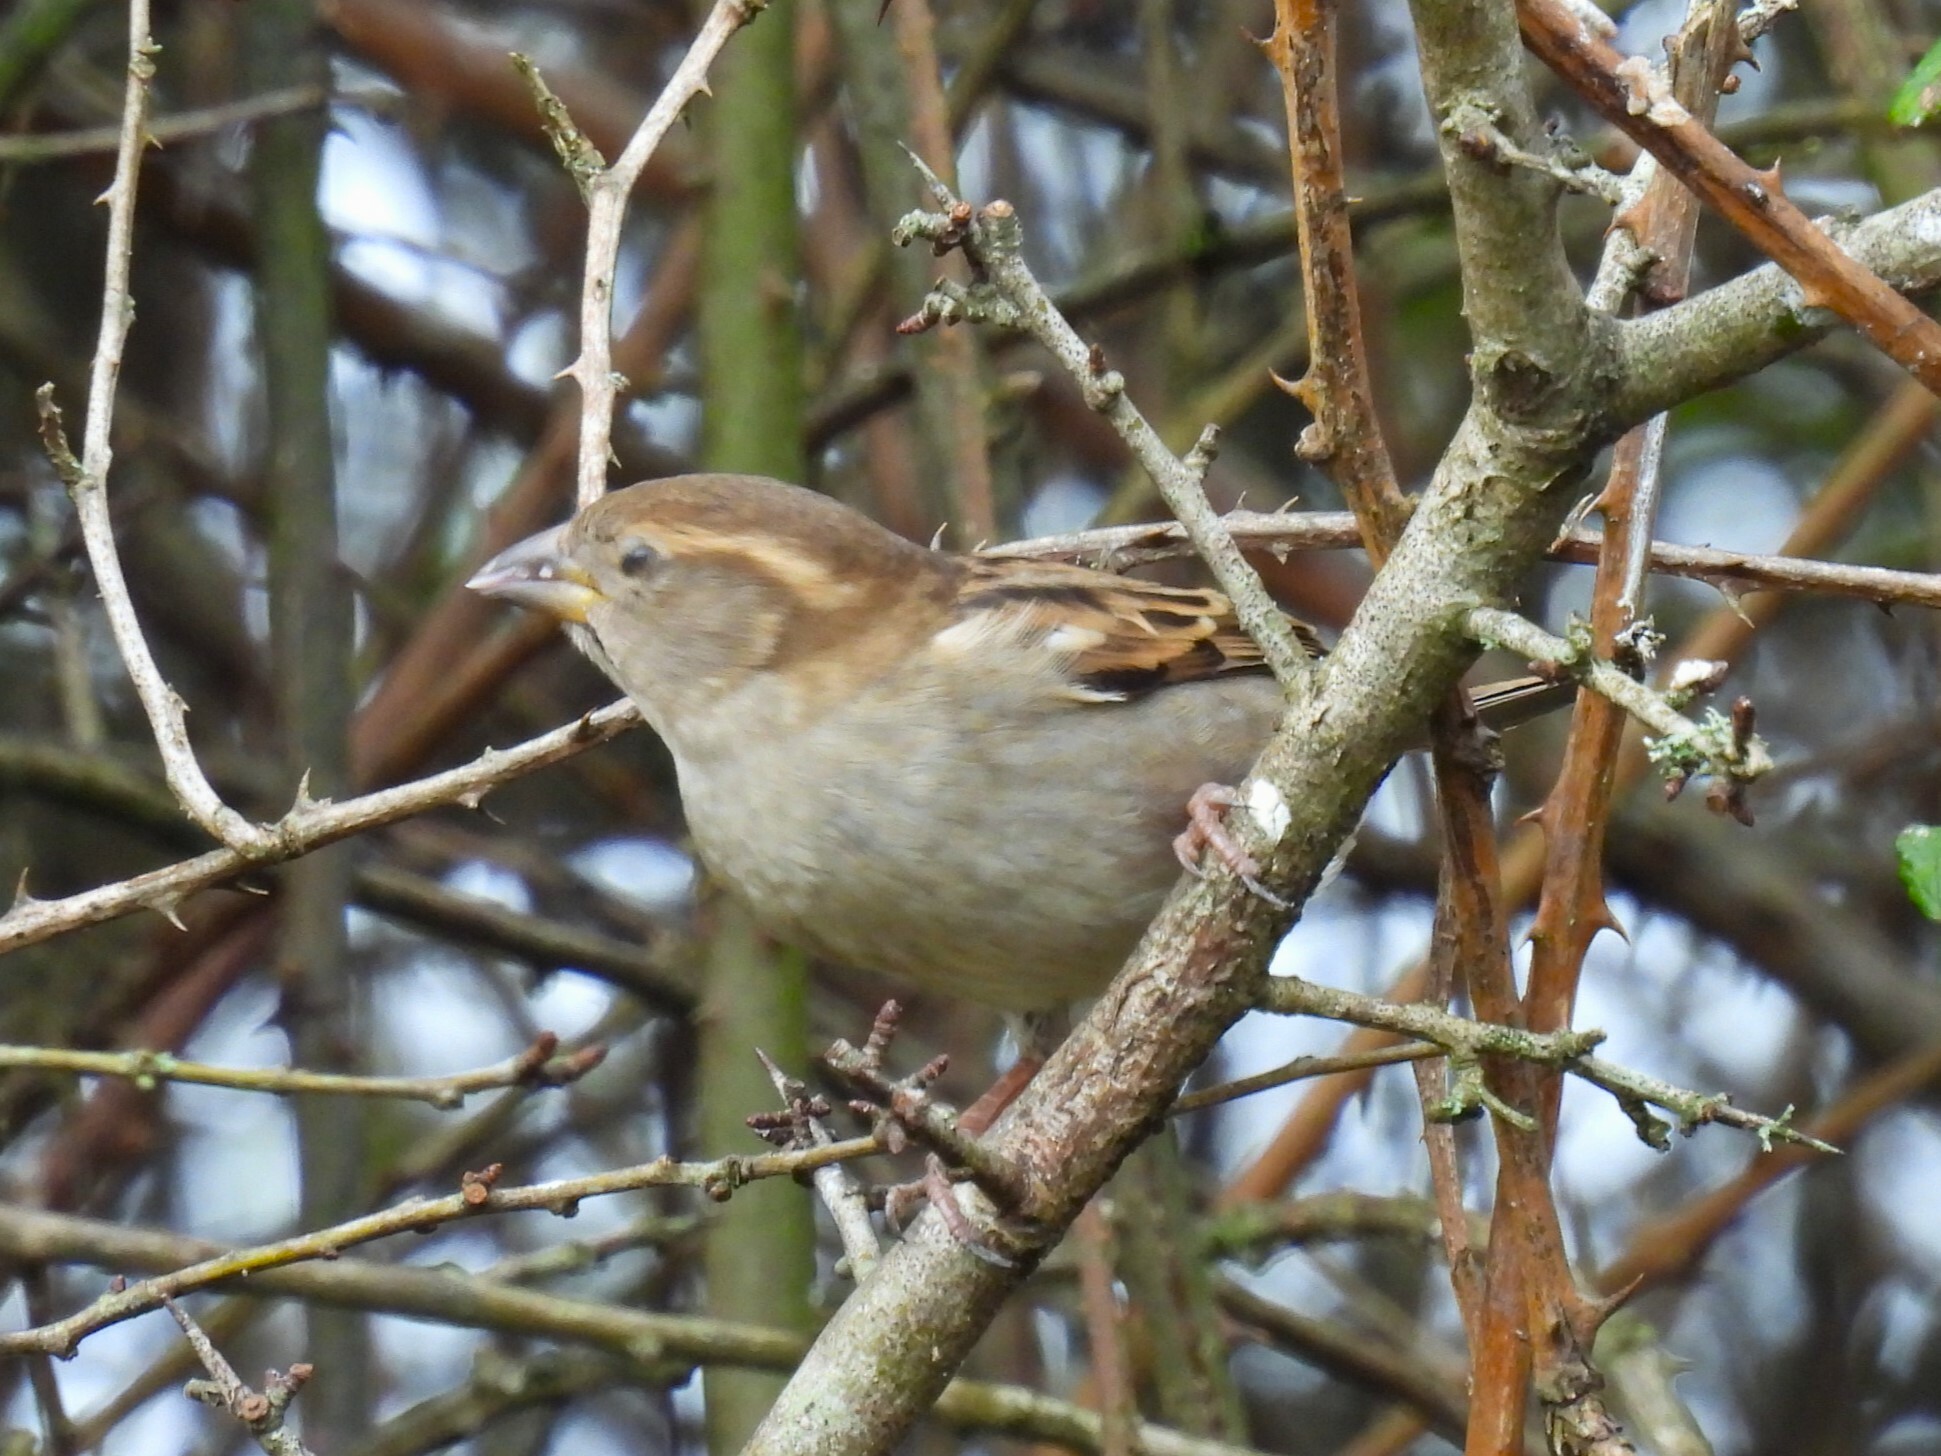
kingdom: Animalia
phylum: Chordata
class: Aves
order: Passeriformes
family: Passeridae
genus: Passer
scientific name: Passer domesticus
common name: House sparrow
